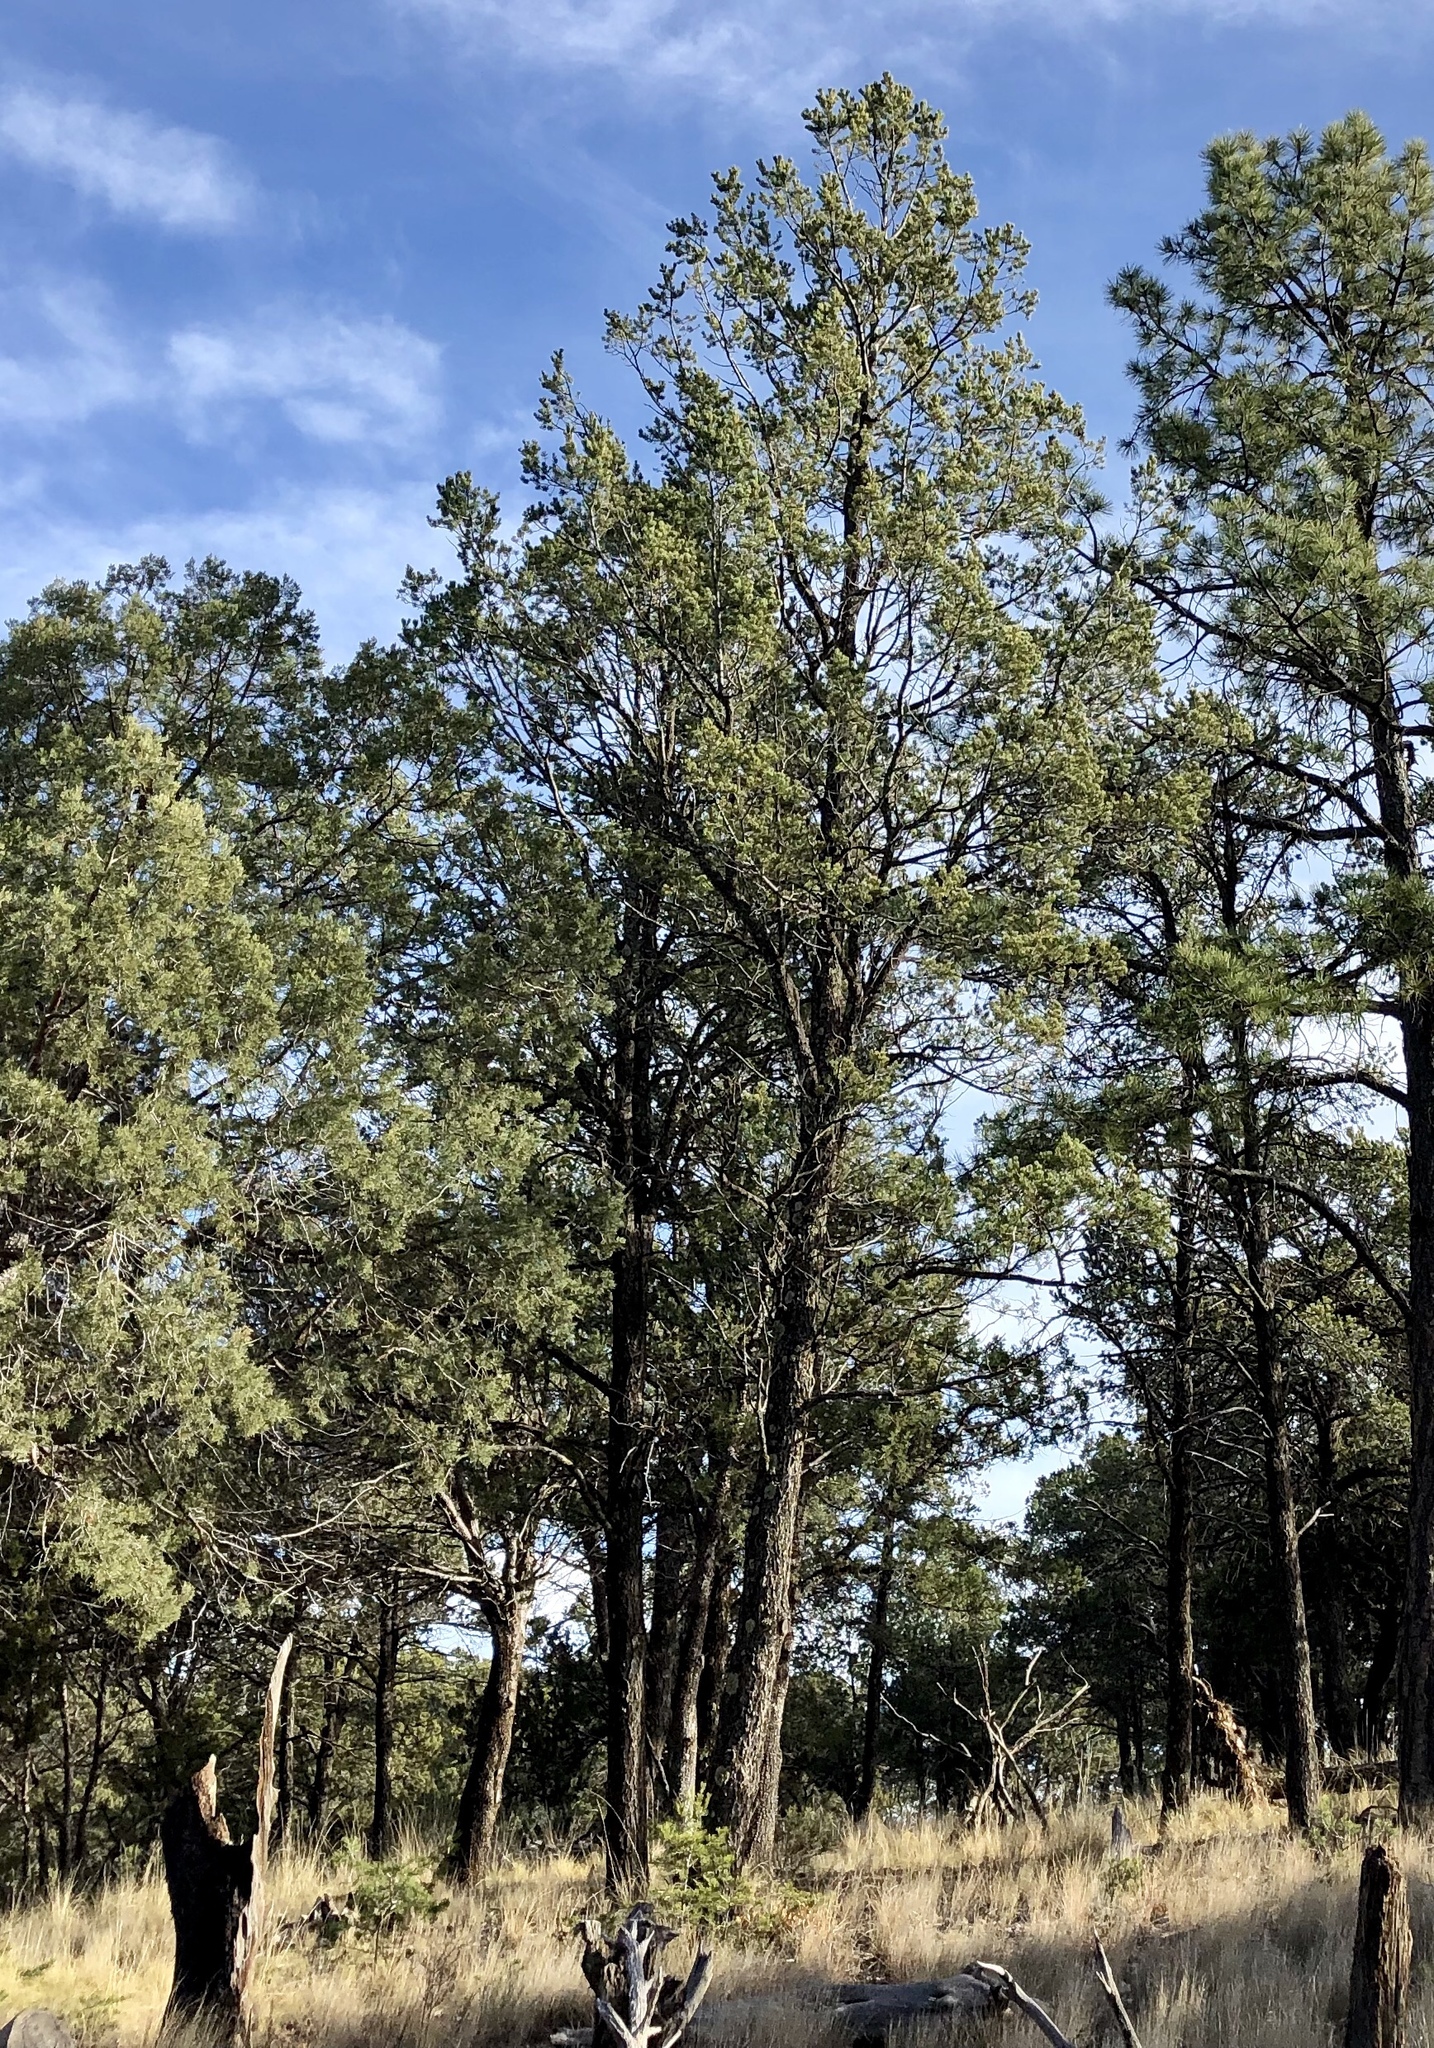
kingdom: Plantae
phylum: Tracheophyta
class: Pinopsida
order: Pinales
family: Pinaceae
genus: Pinus
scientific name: Pinus edulis
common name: Colorado pinyon
